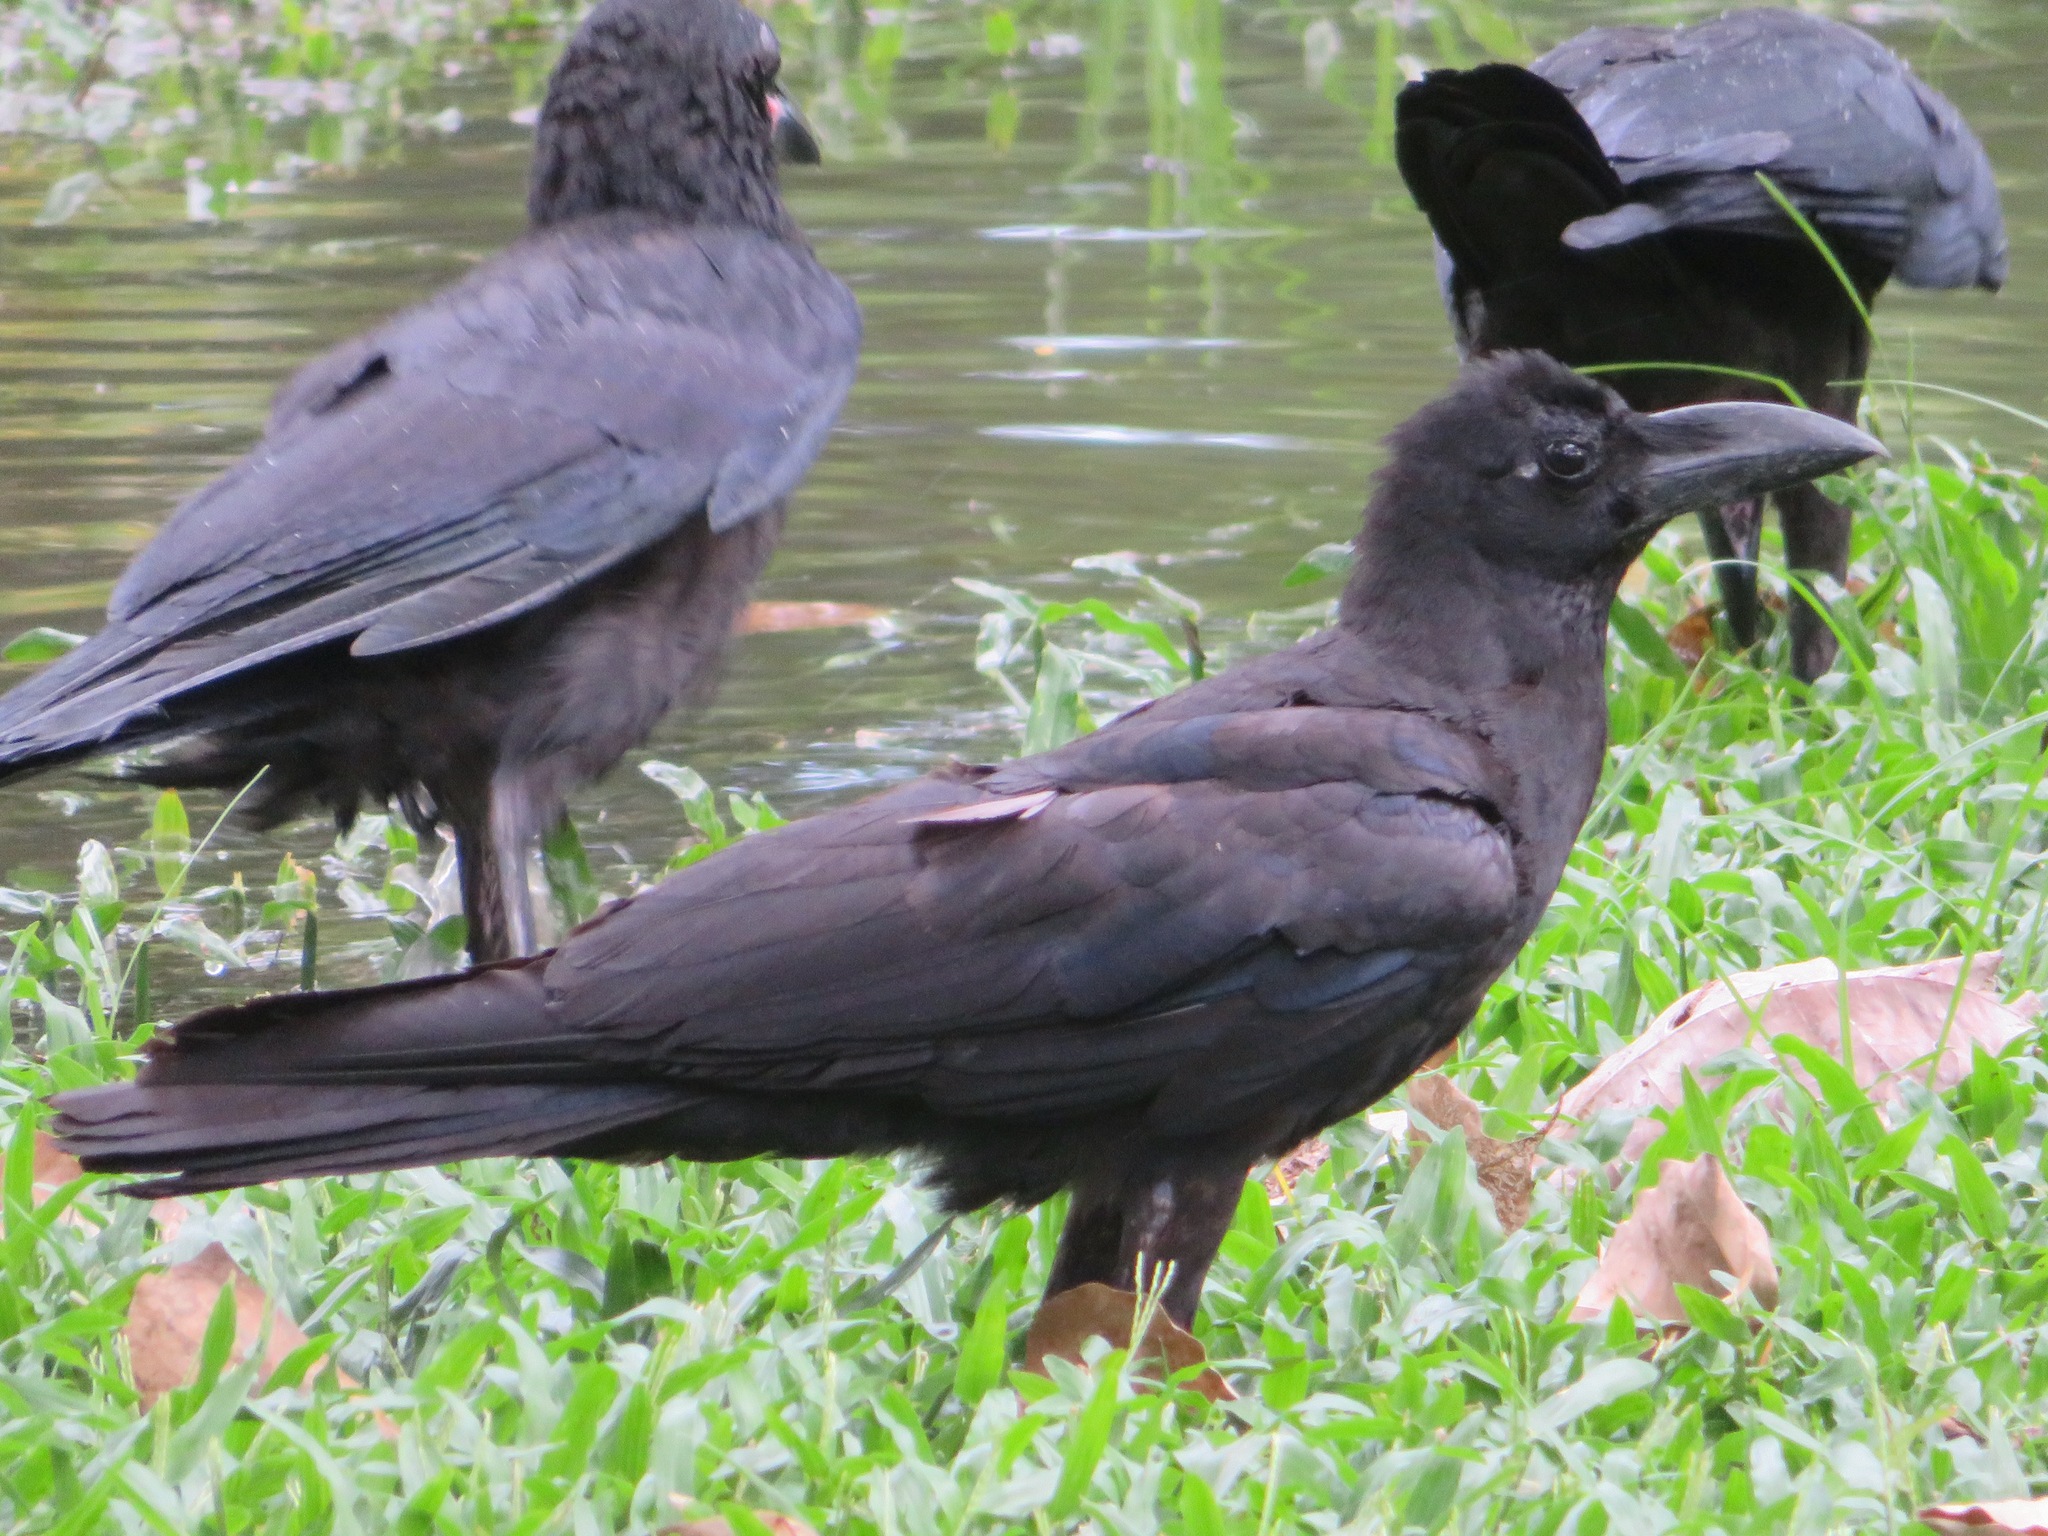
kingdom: Animalia
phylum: Chordata
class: Aves
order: Passeriformes
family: Corvidae
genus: Corvus
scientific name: Corvus macrorhynchos
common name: Large-billed crow
